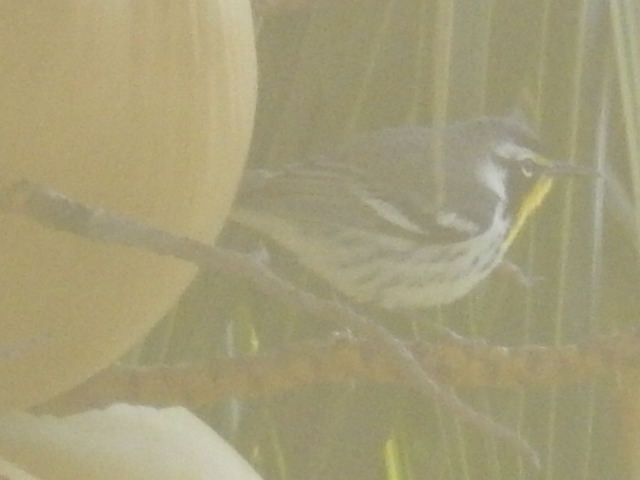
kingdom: Animalia
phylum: Chordata
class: Aves
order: Passeriformes
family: Parulidae
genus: Setophaga
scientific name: Setophaga dominica
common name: Yellow-throated warbler
